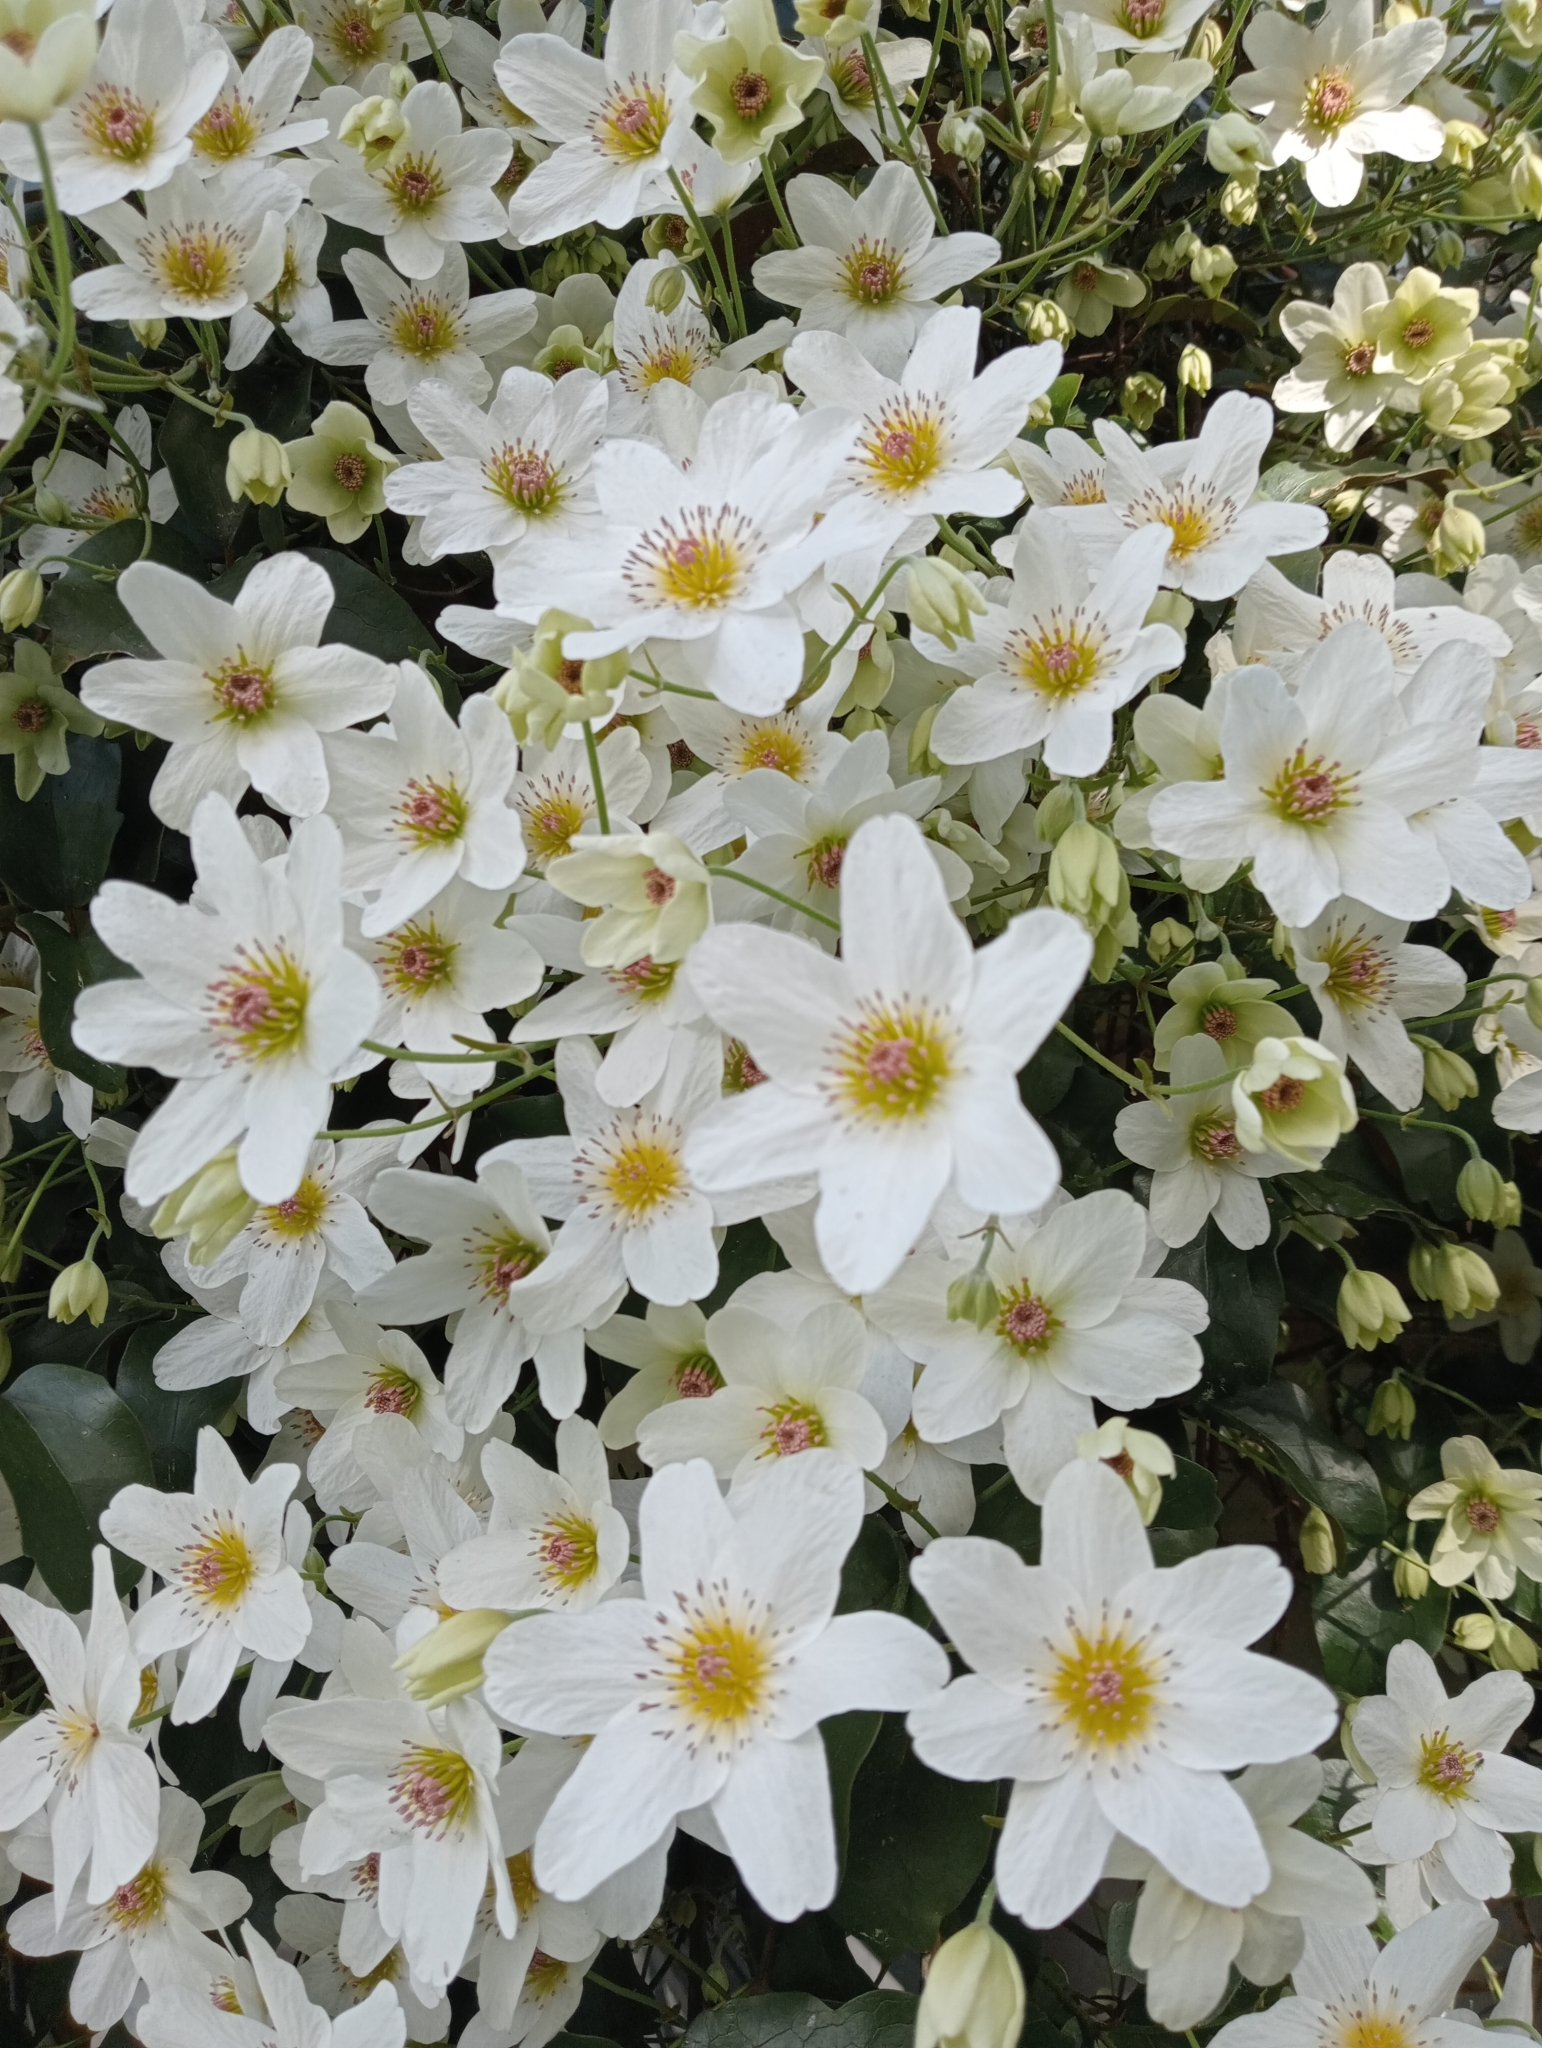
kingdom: Plantae
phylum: Tracheophyta
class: Magnoliopsida
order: Ranunculales
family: Ranunculaceae
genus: Clematis
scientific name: Clematis paniculata
